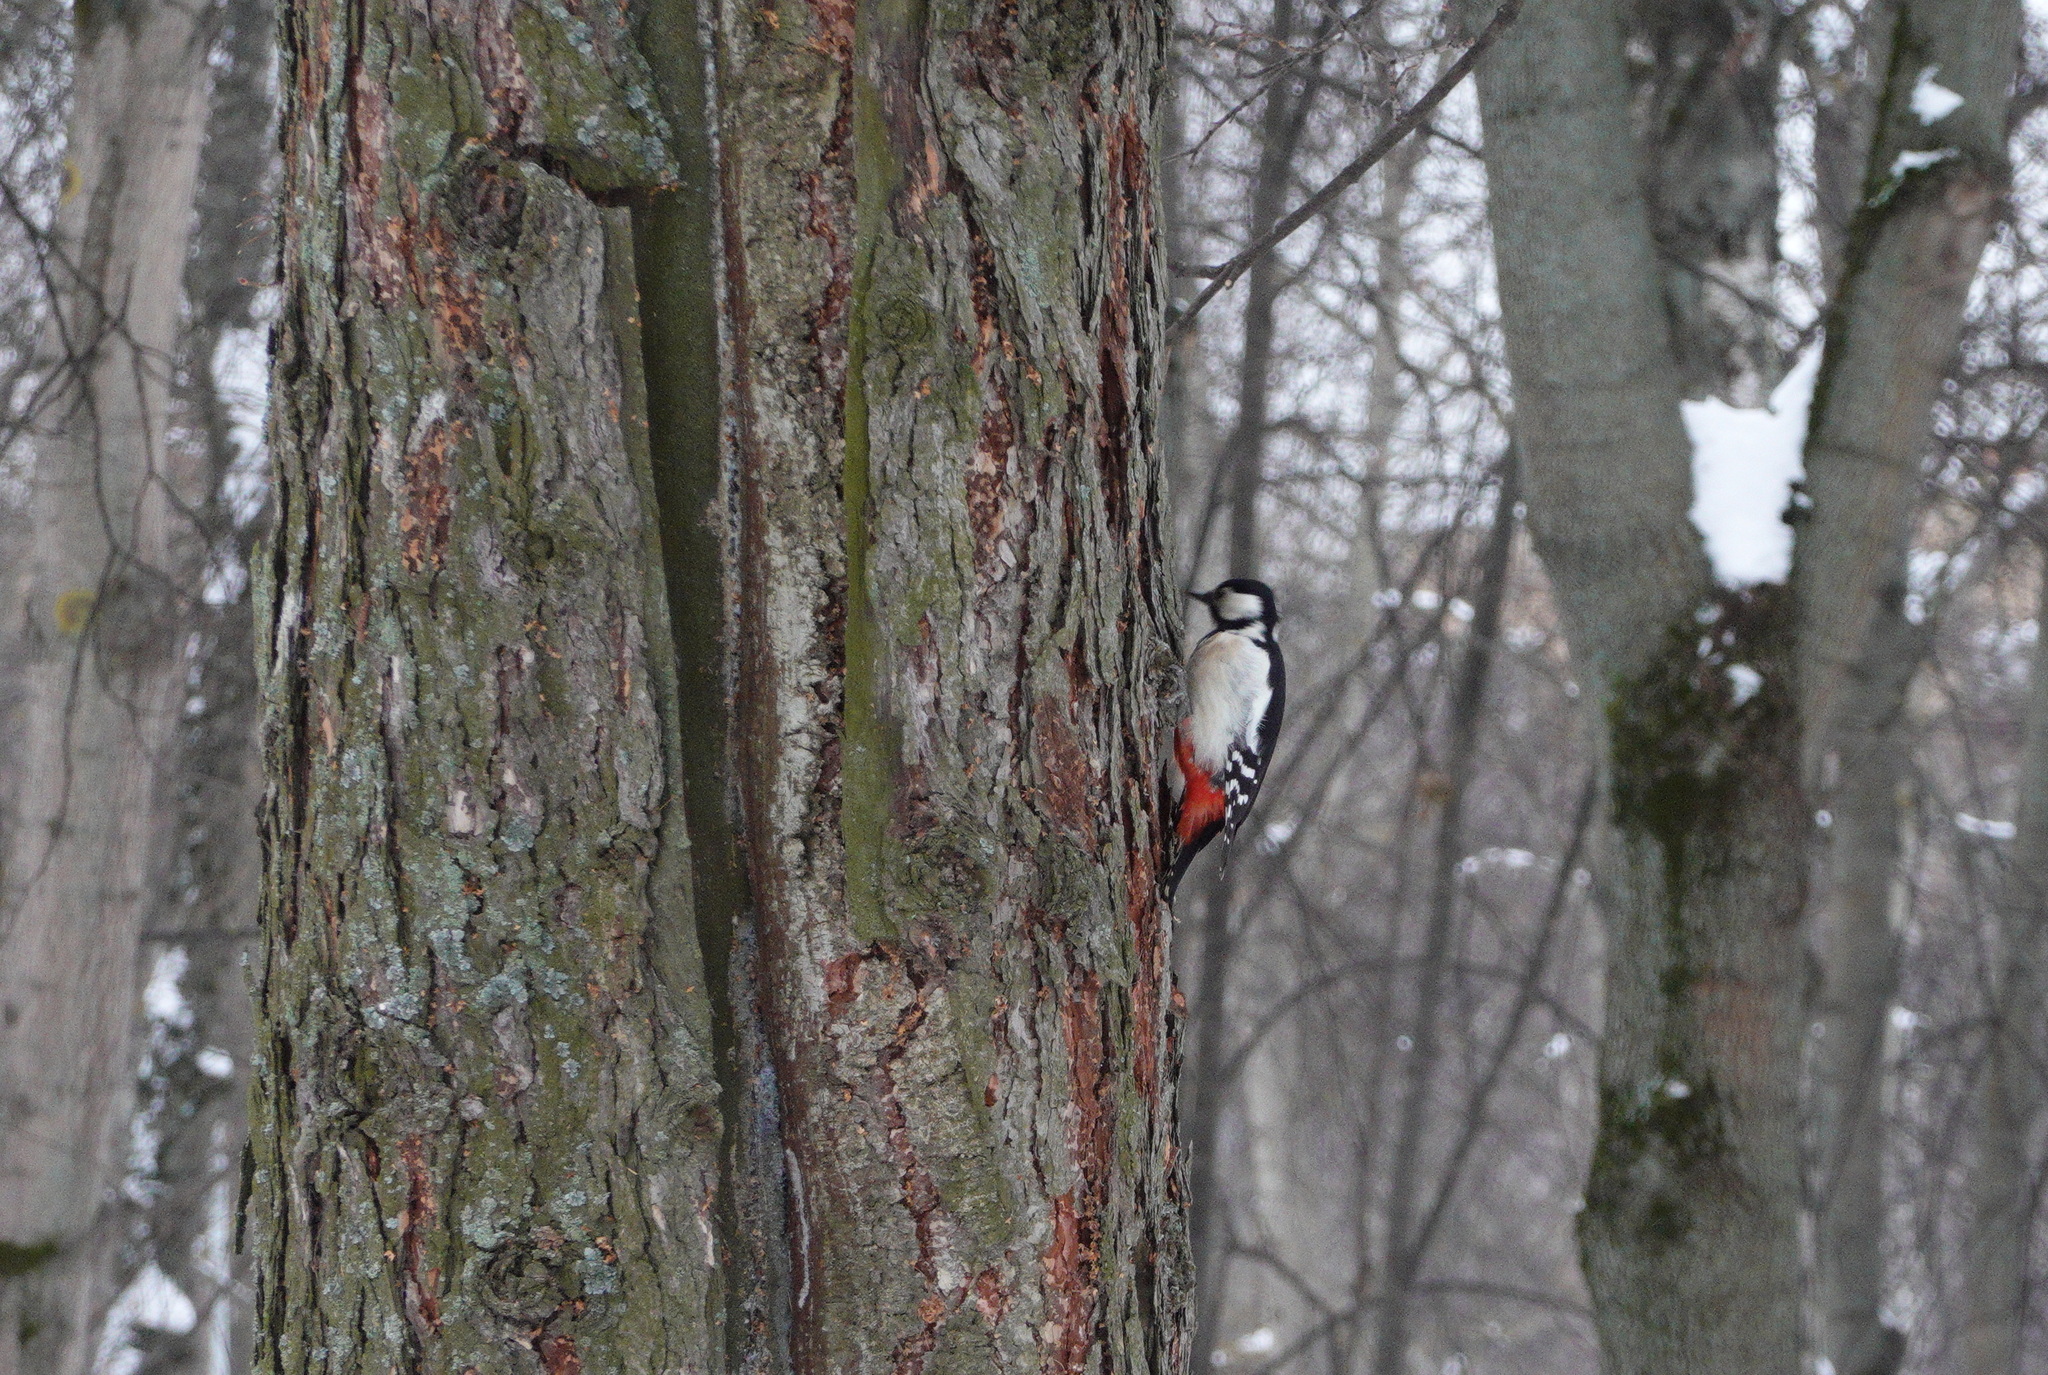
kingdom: Animalia
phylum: Chordata
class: Aves
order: Piciformes
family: Picidae
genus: Dendrocopos
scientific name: Dendrocopos major
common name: Great spotted woodpecker
